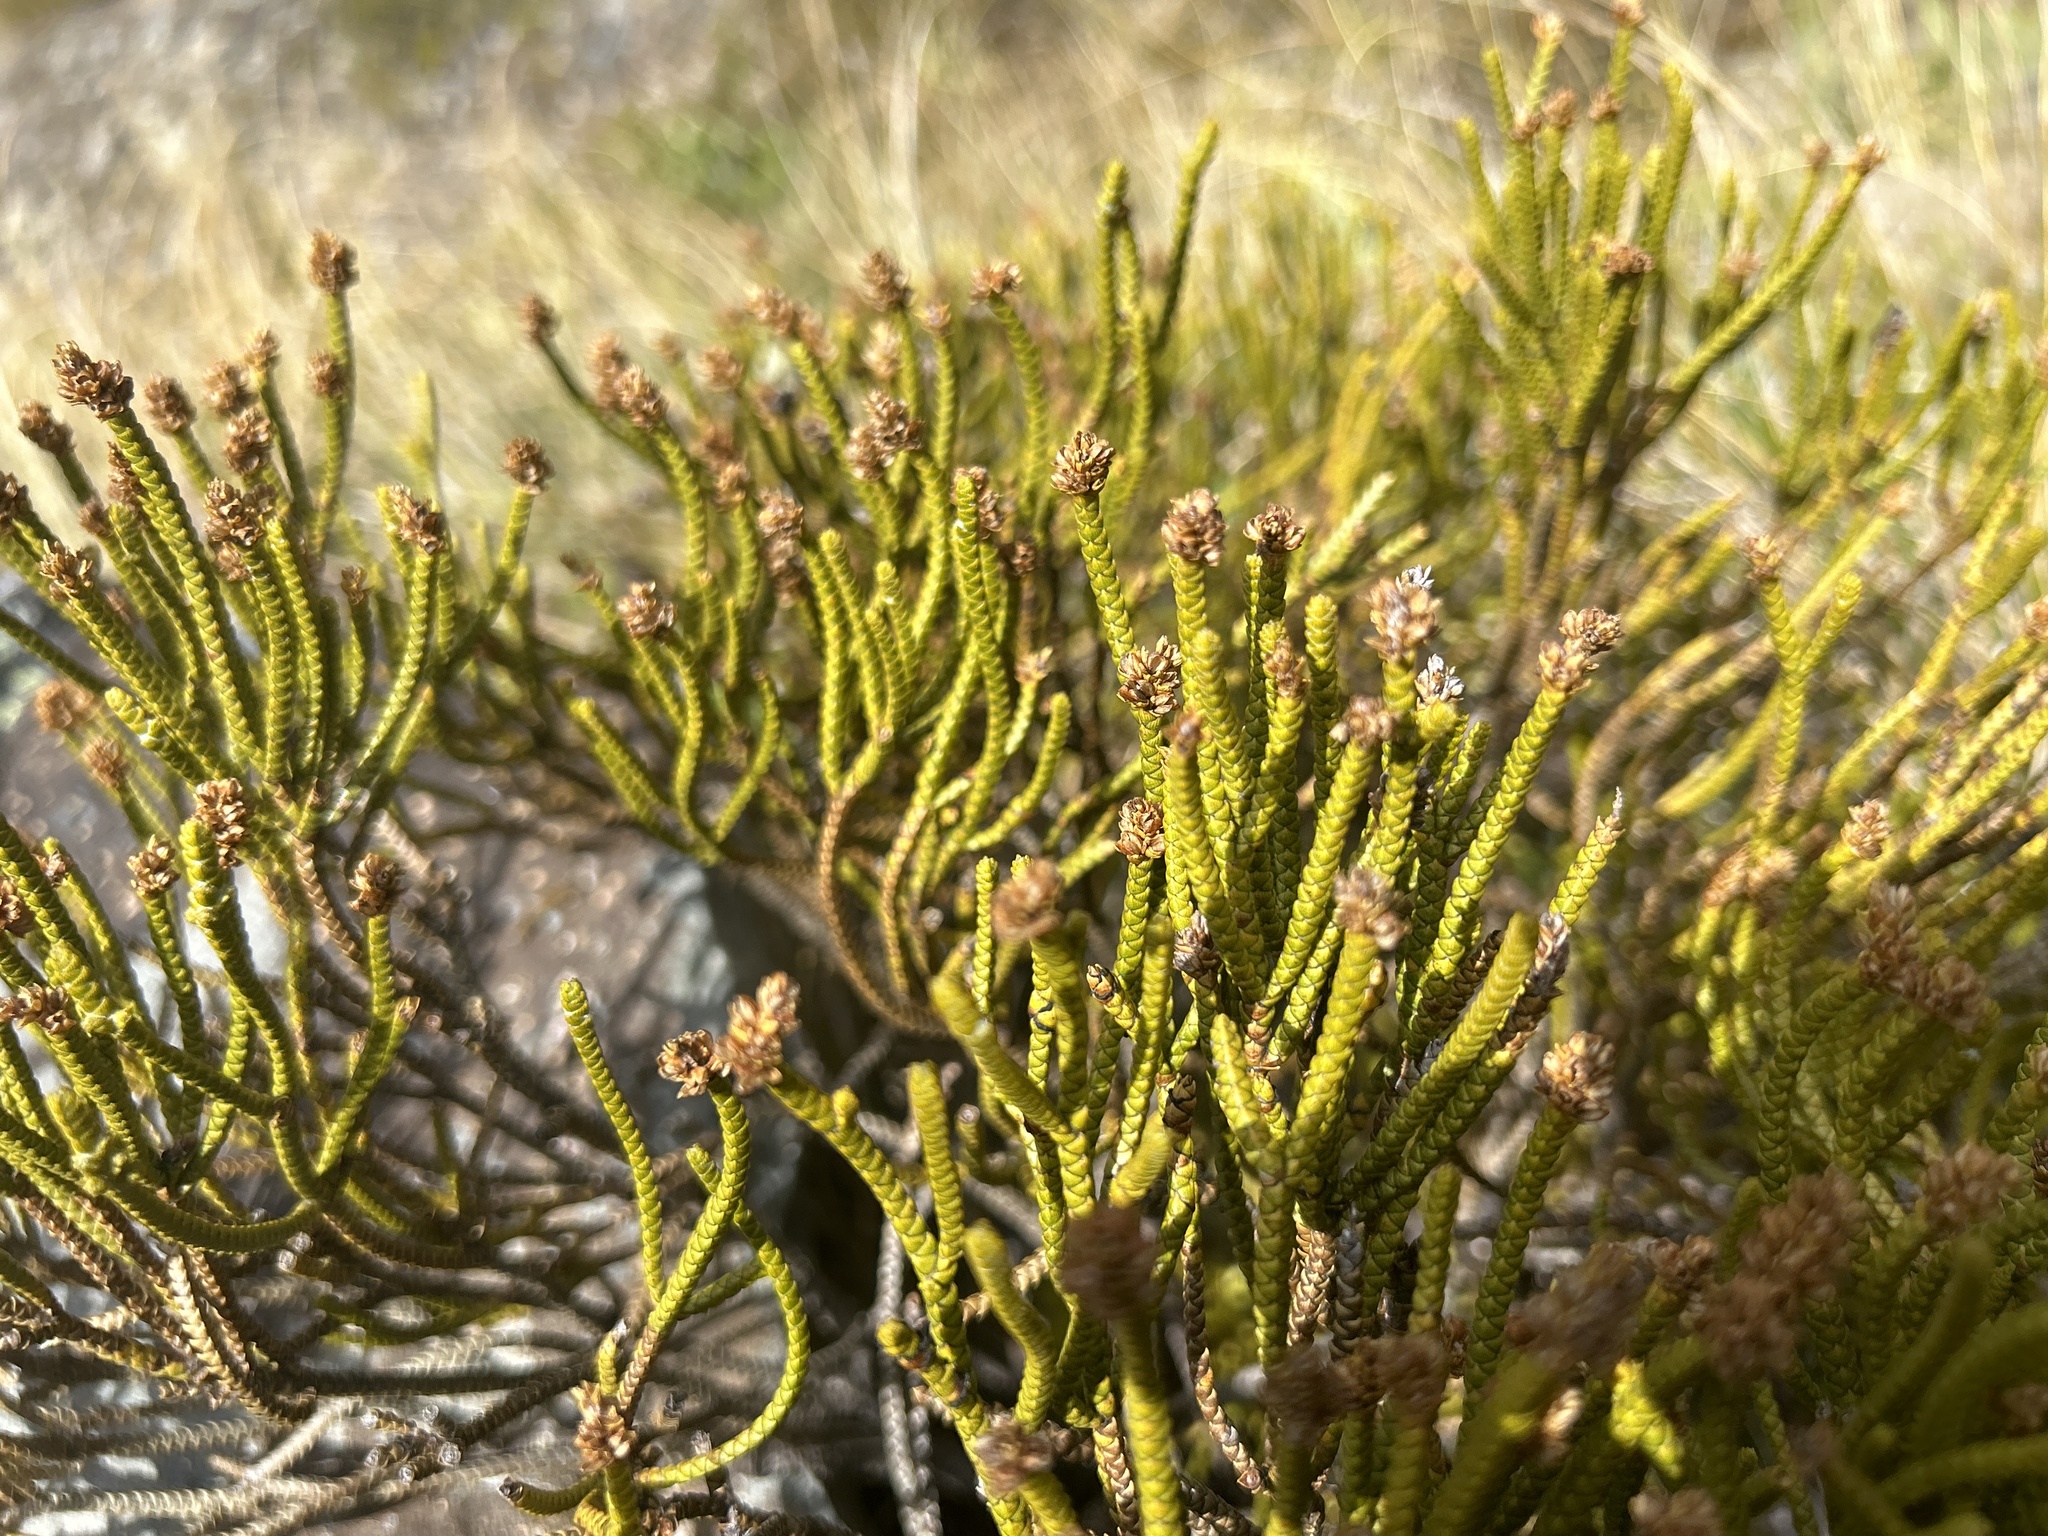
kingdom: Plantae
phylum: Tracheophyta
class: Magnoliopsida
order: Lamiales
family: Plantaginaceae
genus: Veronica
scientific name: Veronica lycopodioides
